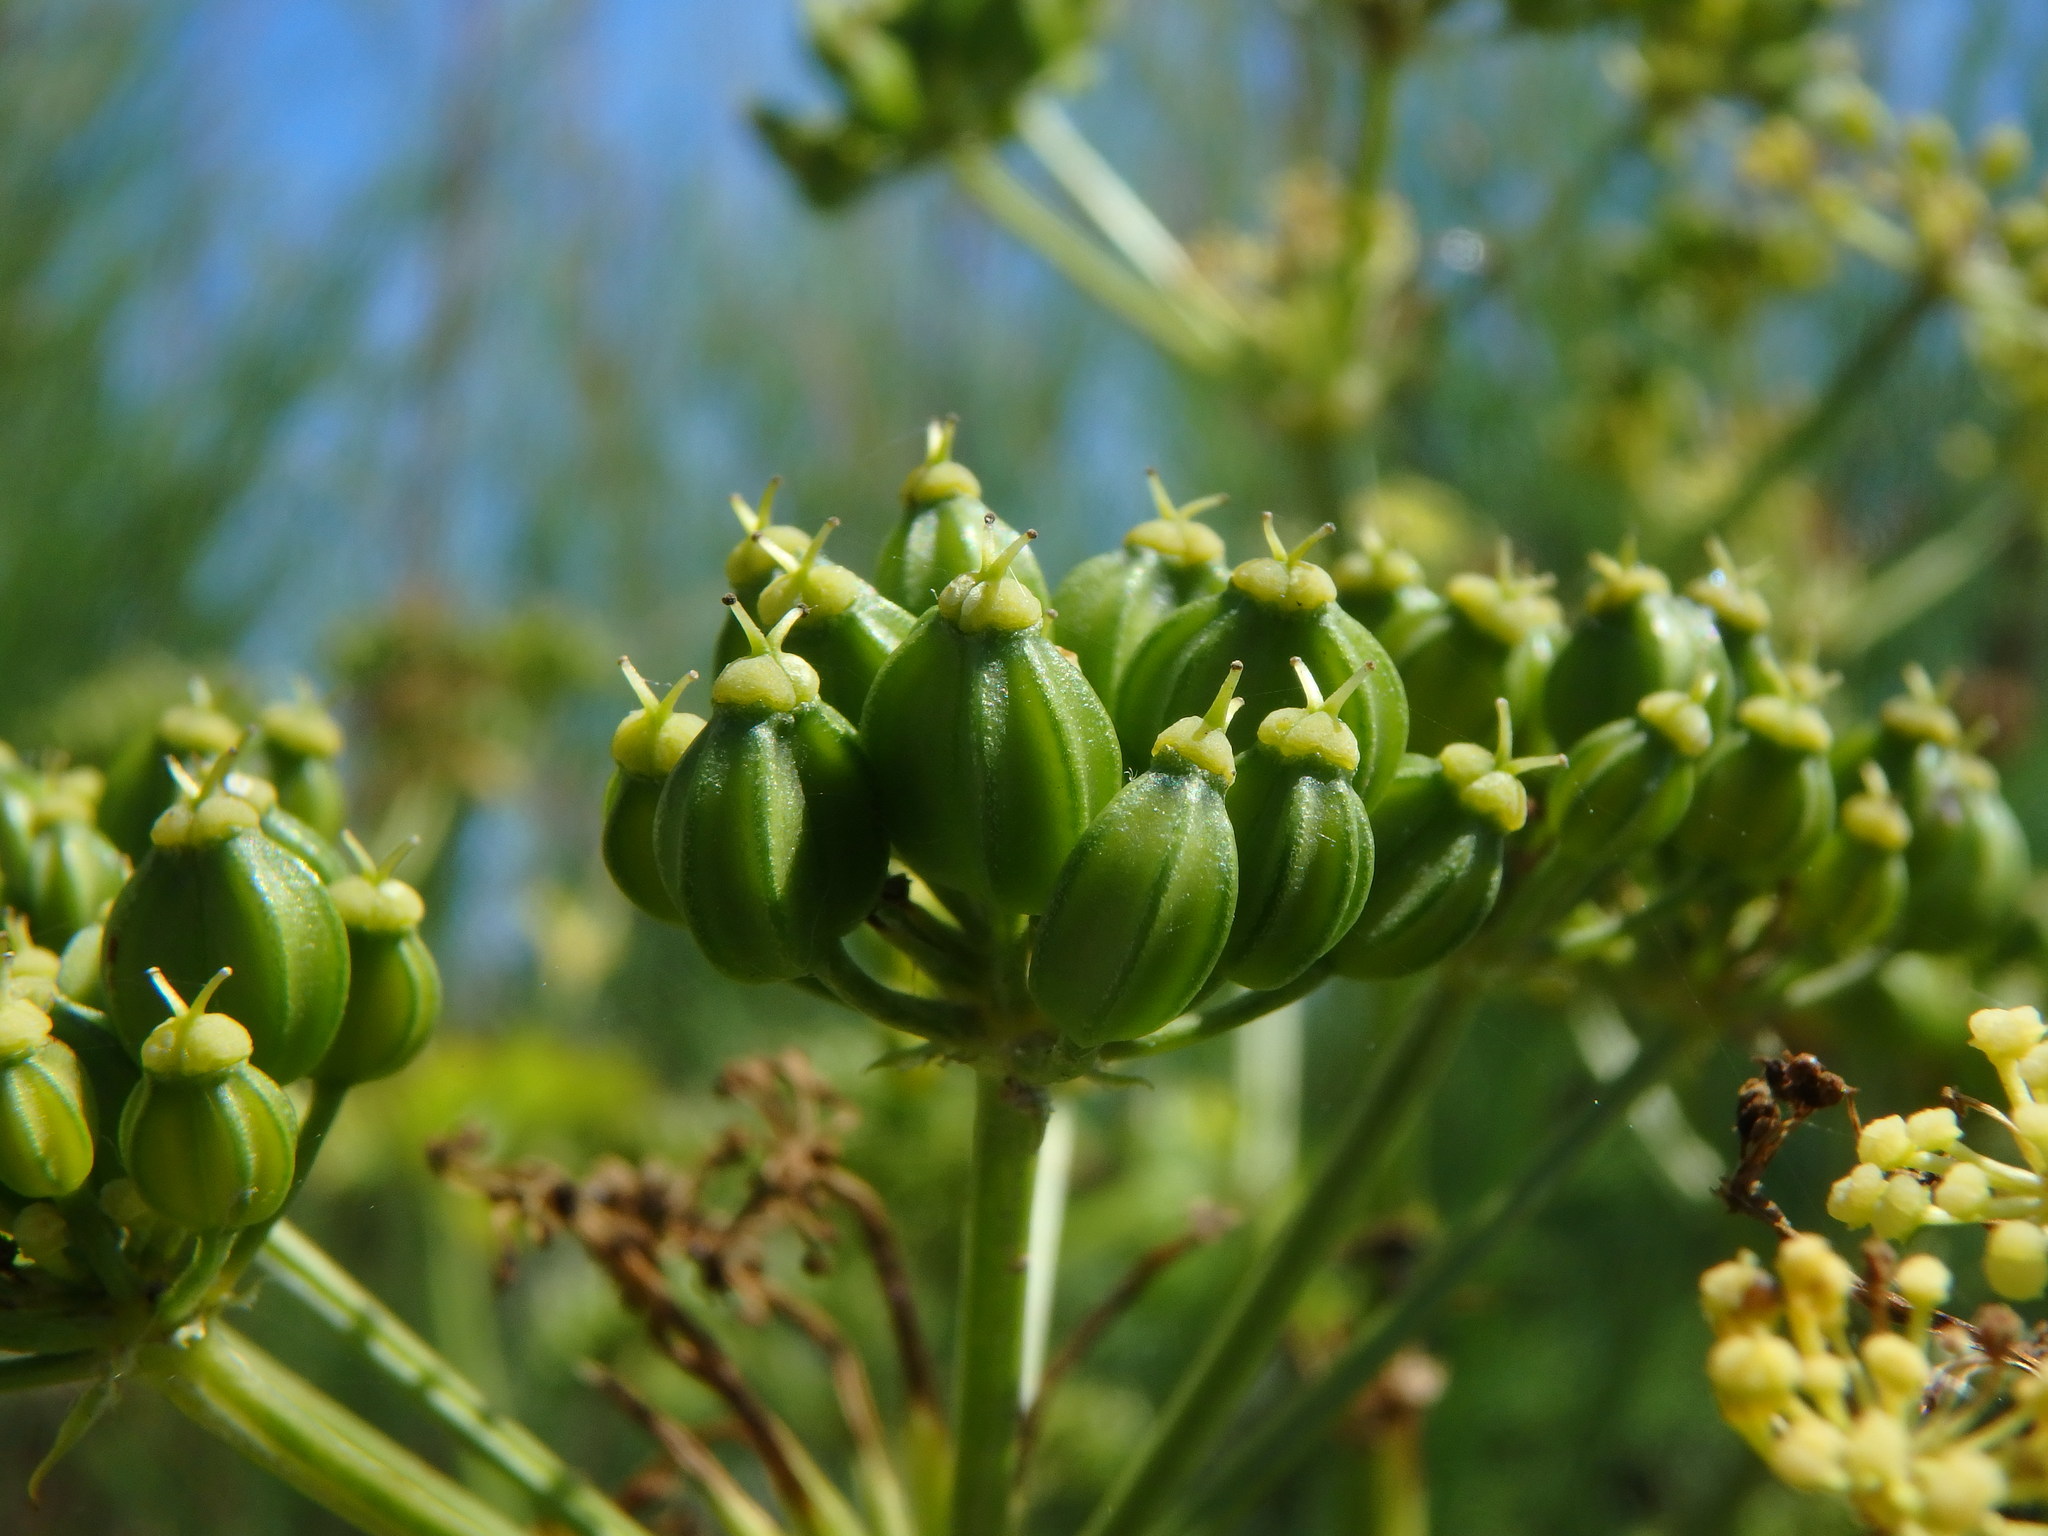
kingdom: Plantae
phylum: Tracheophyta
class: Magnoliopsida
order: Apiales
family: Apiaceae
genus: Smyrnium
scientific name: Smyrnium olusatrum
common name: Alexanders
